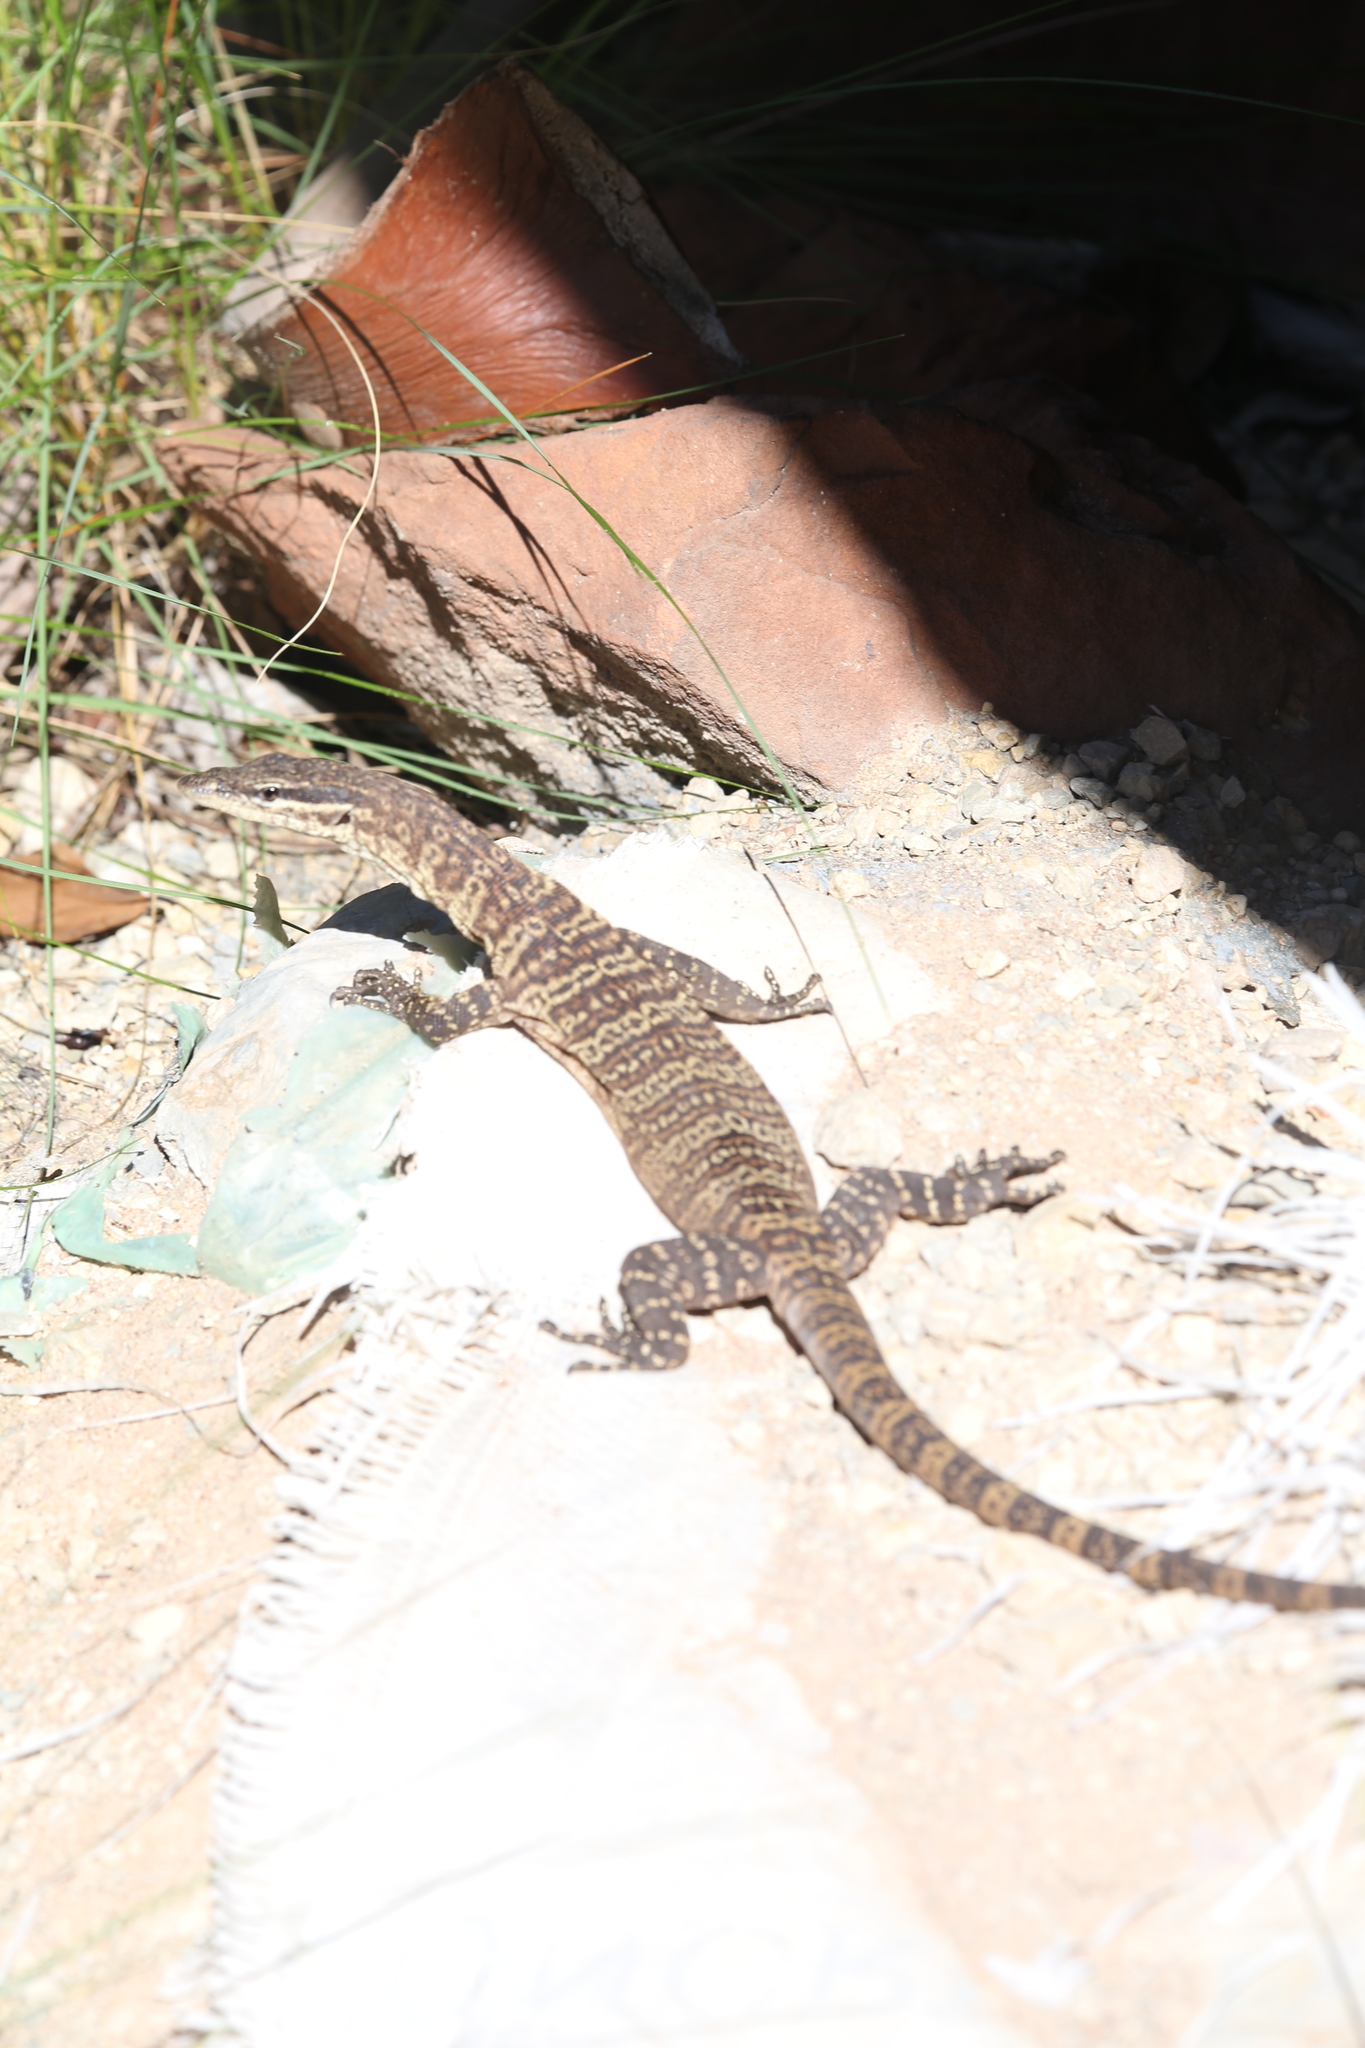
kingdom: Animalia
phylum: Chordata
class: Squamata
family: Varanidae
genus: Varanus
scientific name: Varanus glauerti
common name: Kimberley rock monitor
